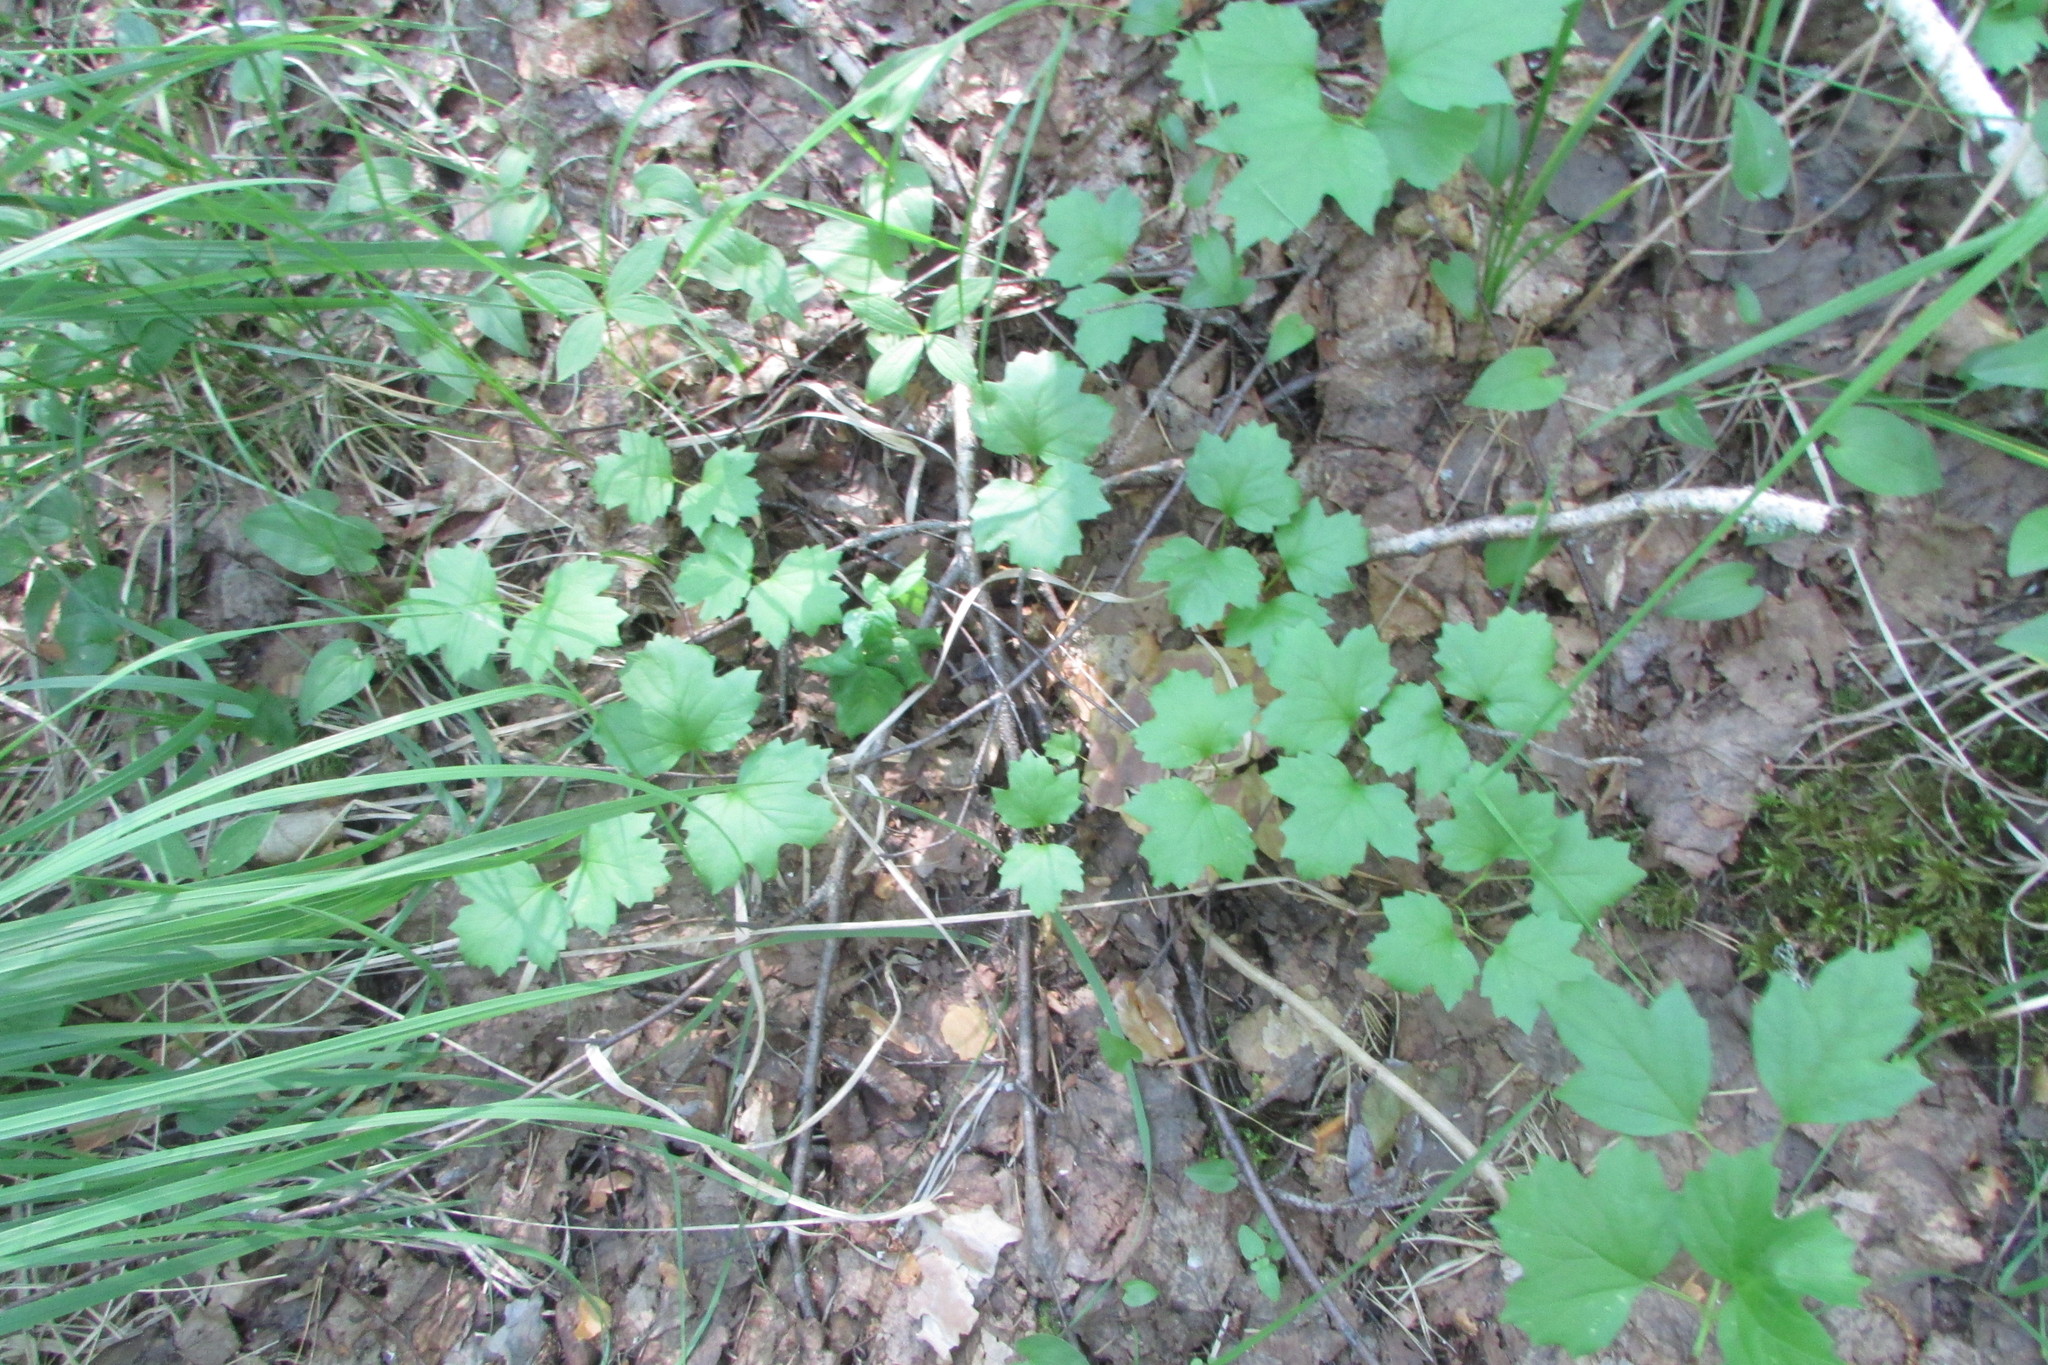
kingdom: Plantae
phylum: Tracheophyta
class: Magnoliopsida
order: Dipsacales
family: Viburnaceae
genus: Viburnum
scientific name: Viburnum opulus
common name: Guelder-rose
